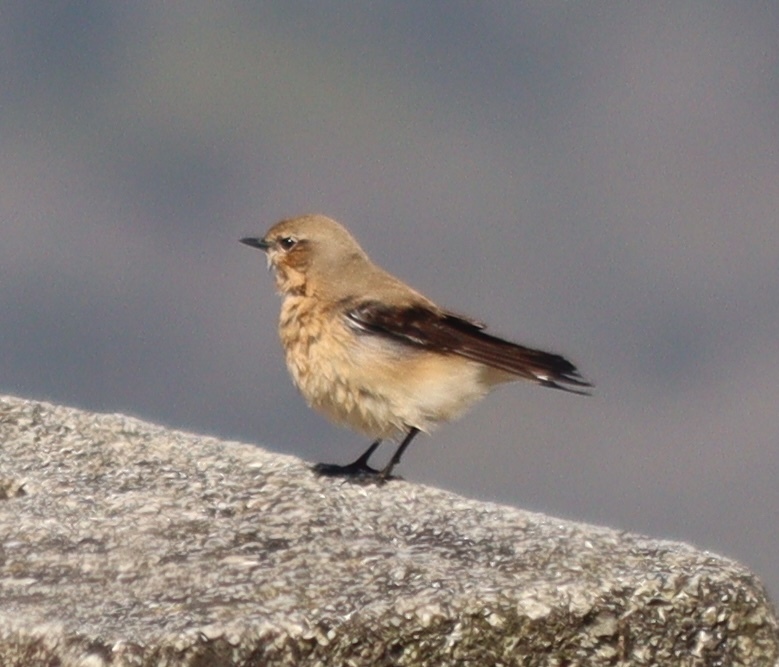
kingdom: Animalia
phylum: Chordata
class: Aves
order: Passeriformes
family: Muscicapidae
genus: Oenanthe
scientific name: Oenanthe oenanthe
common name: Northern wheatear
